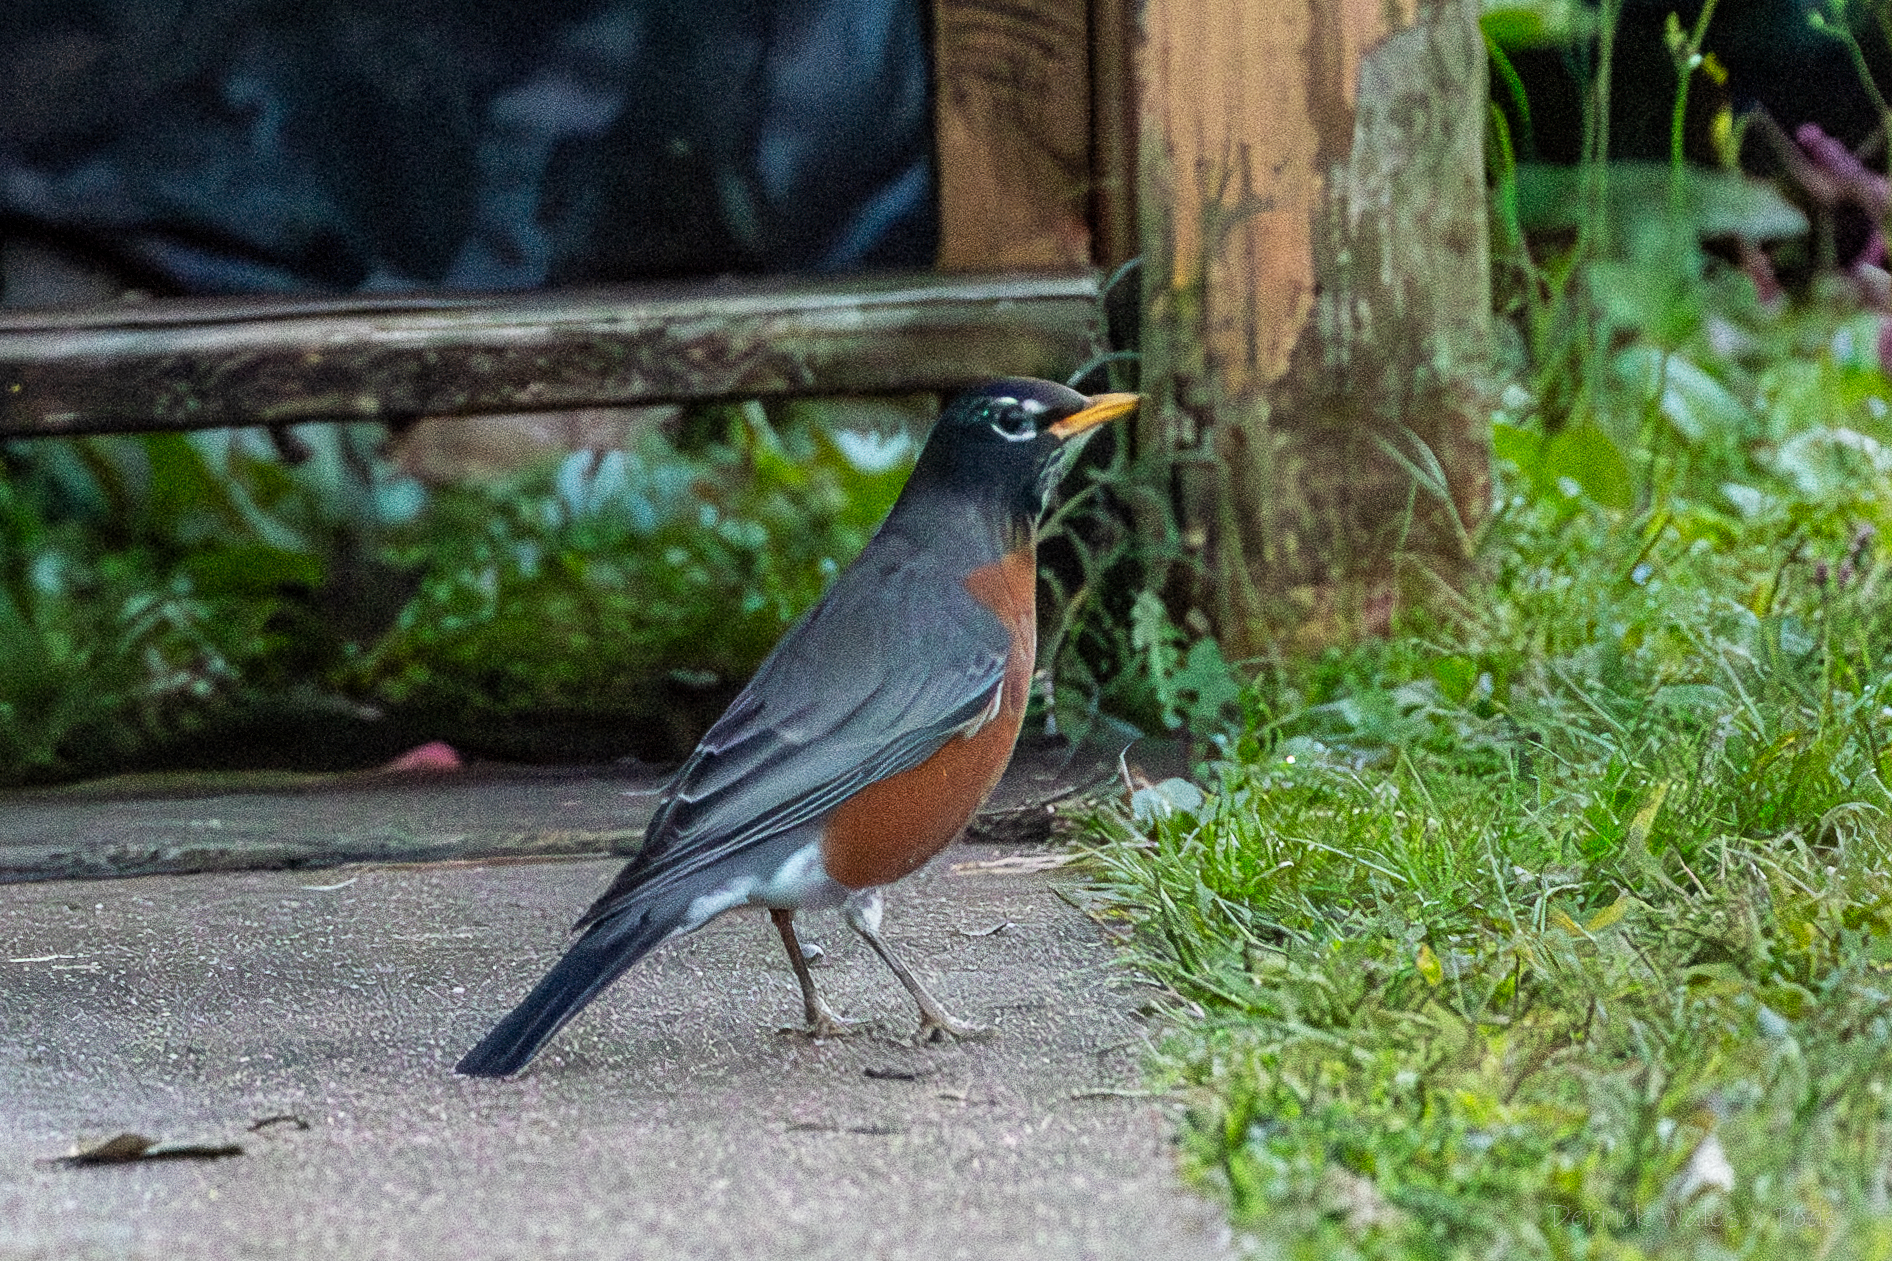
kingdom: Animalia
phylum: Chordata
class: Aves
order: Passeriformes
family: Turdidae
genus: Turdus
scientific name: Turdus migratorius
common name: American robin
